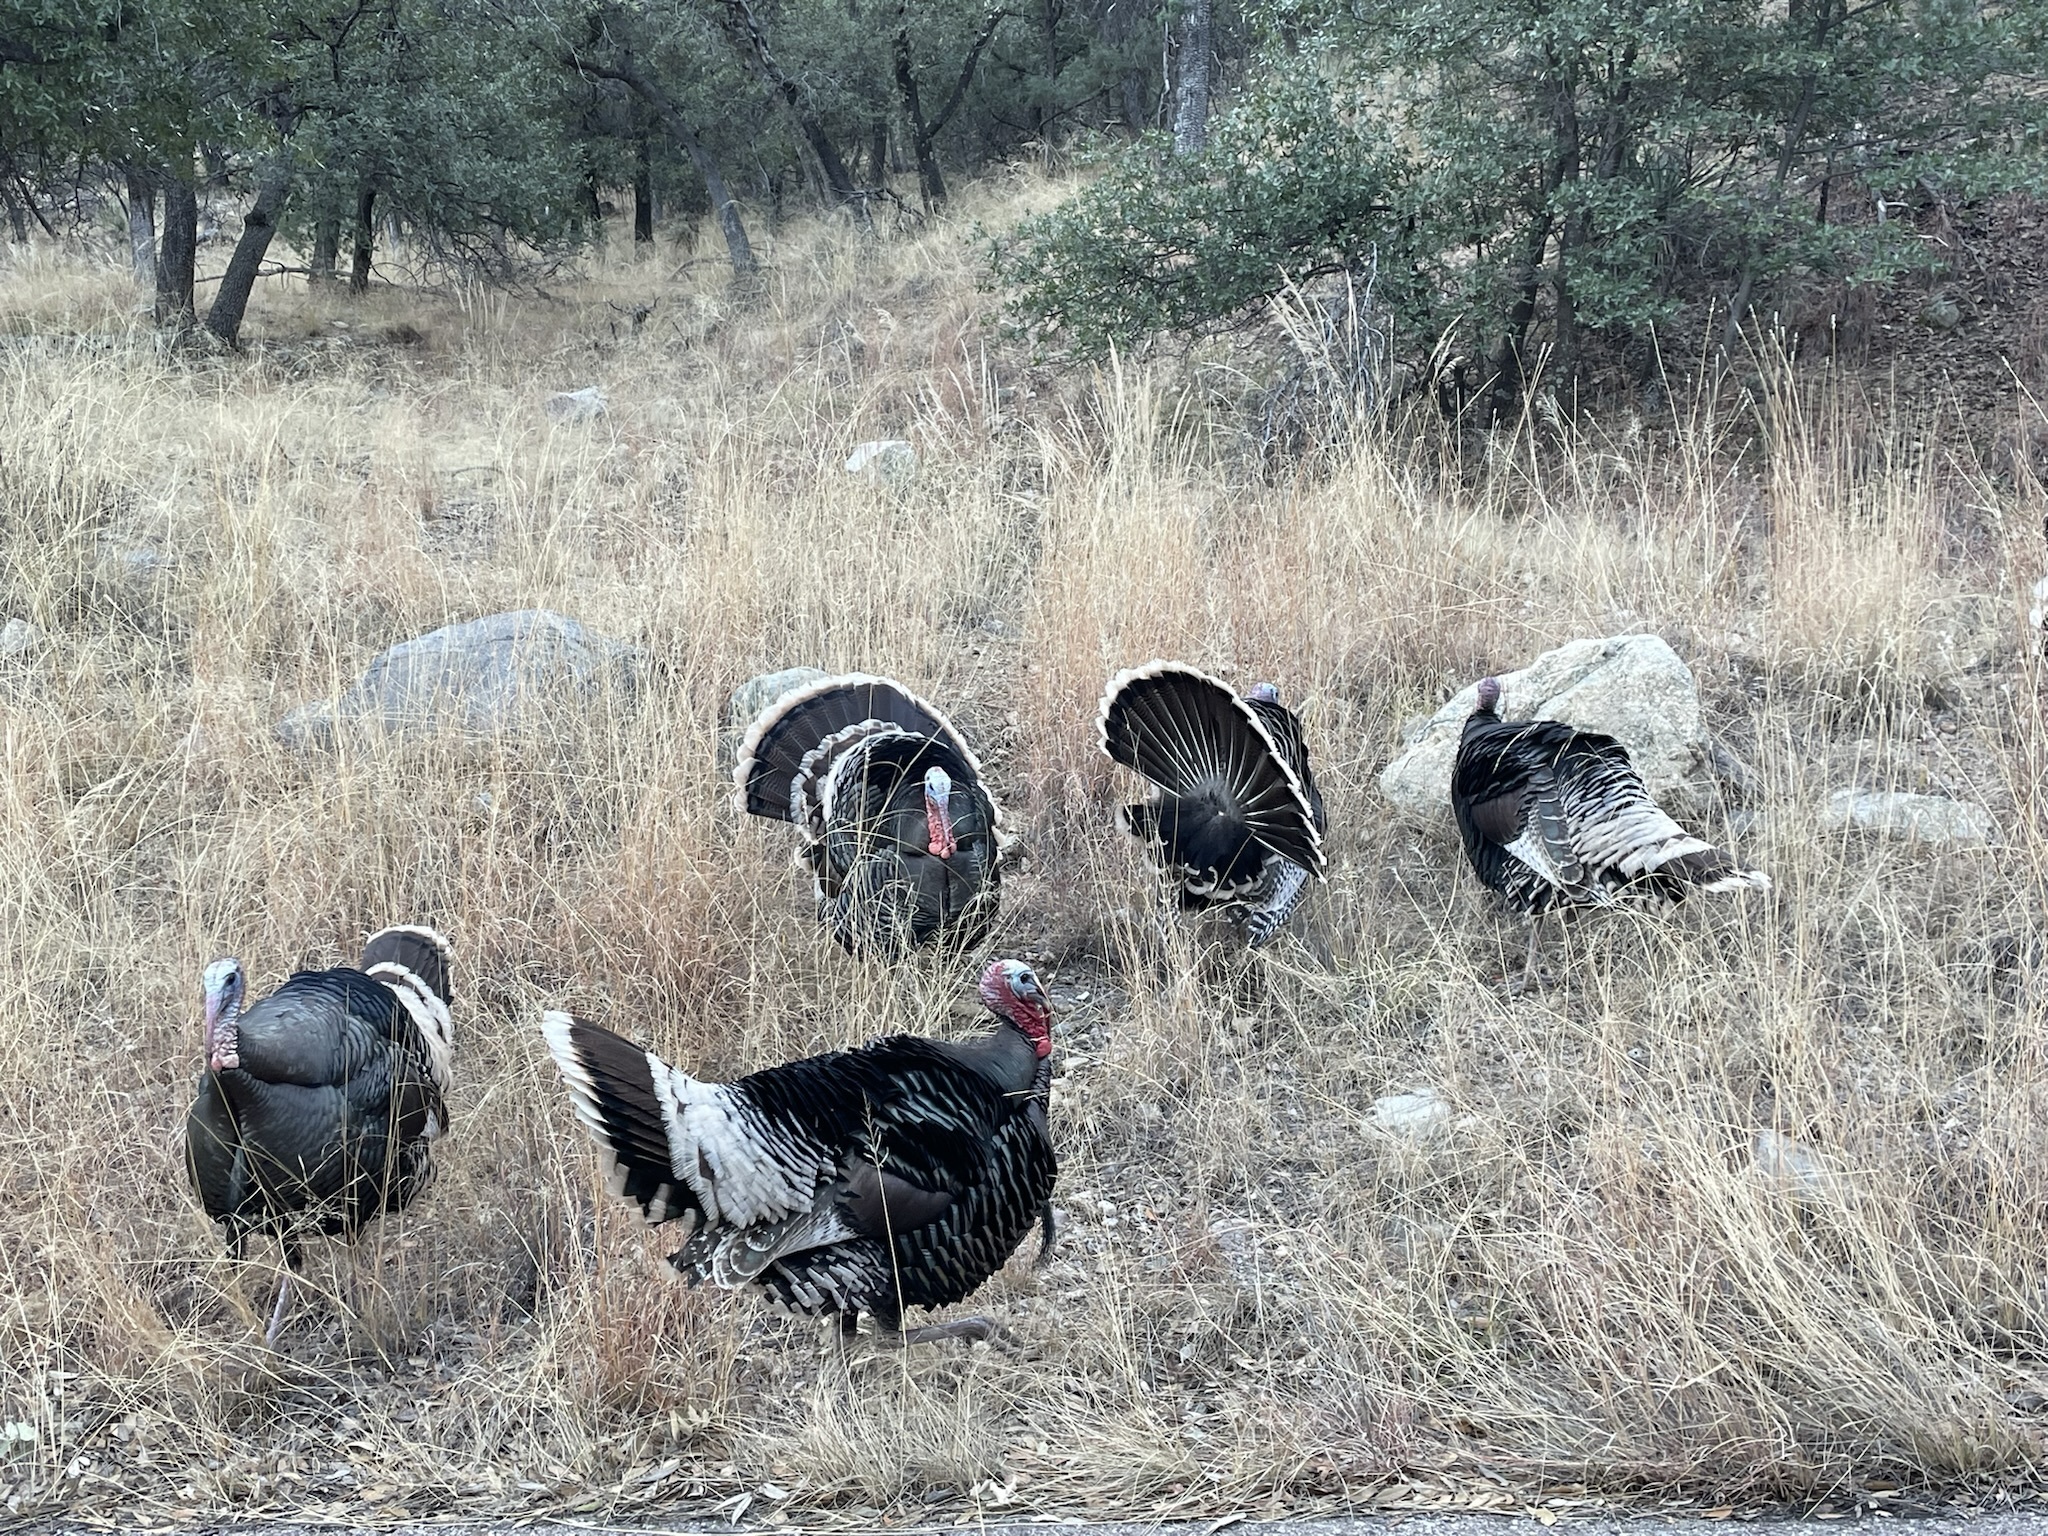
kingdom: Animalia
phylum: Chordata
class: Aves
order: Galliformes
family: Phasianidae
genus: Meleagris
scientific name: Meleagris gallopavo
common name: Wild turkey
